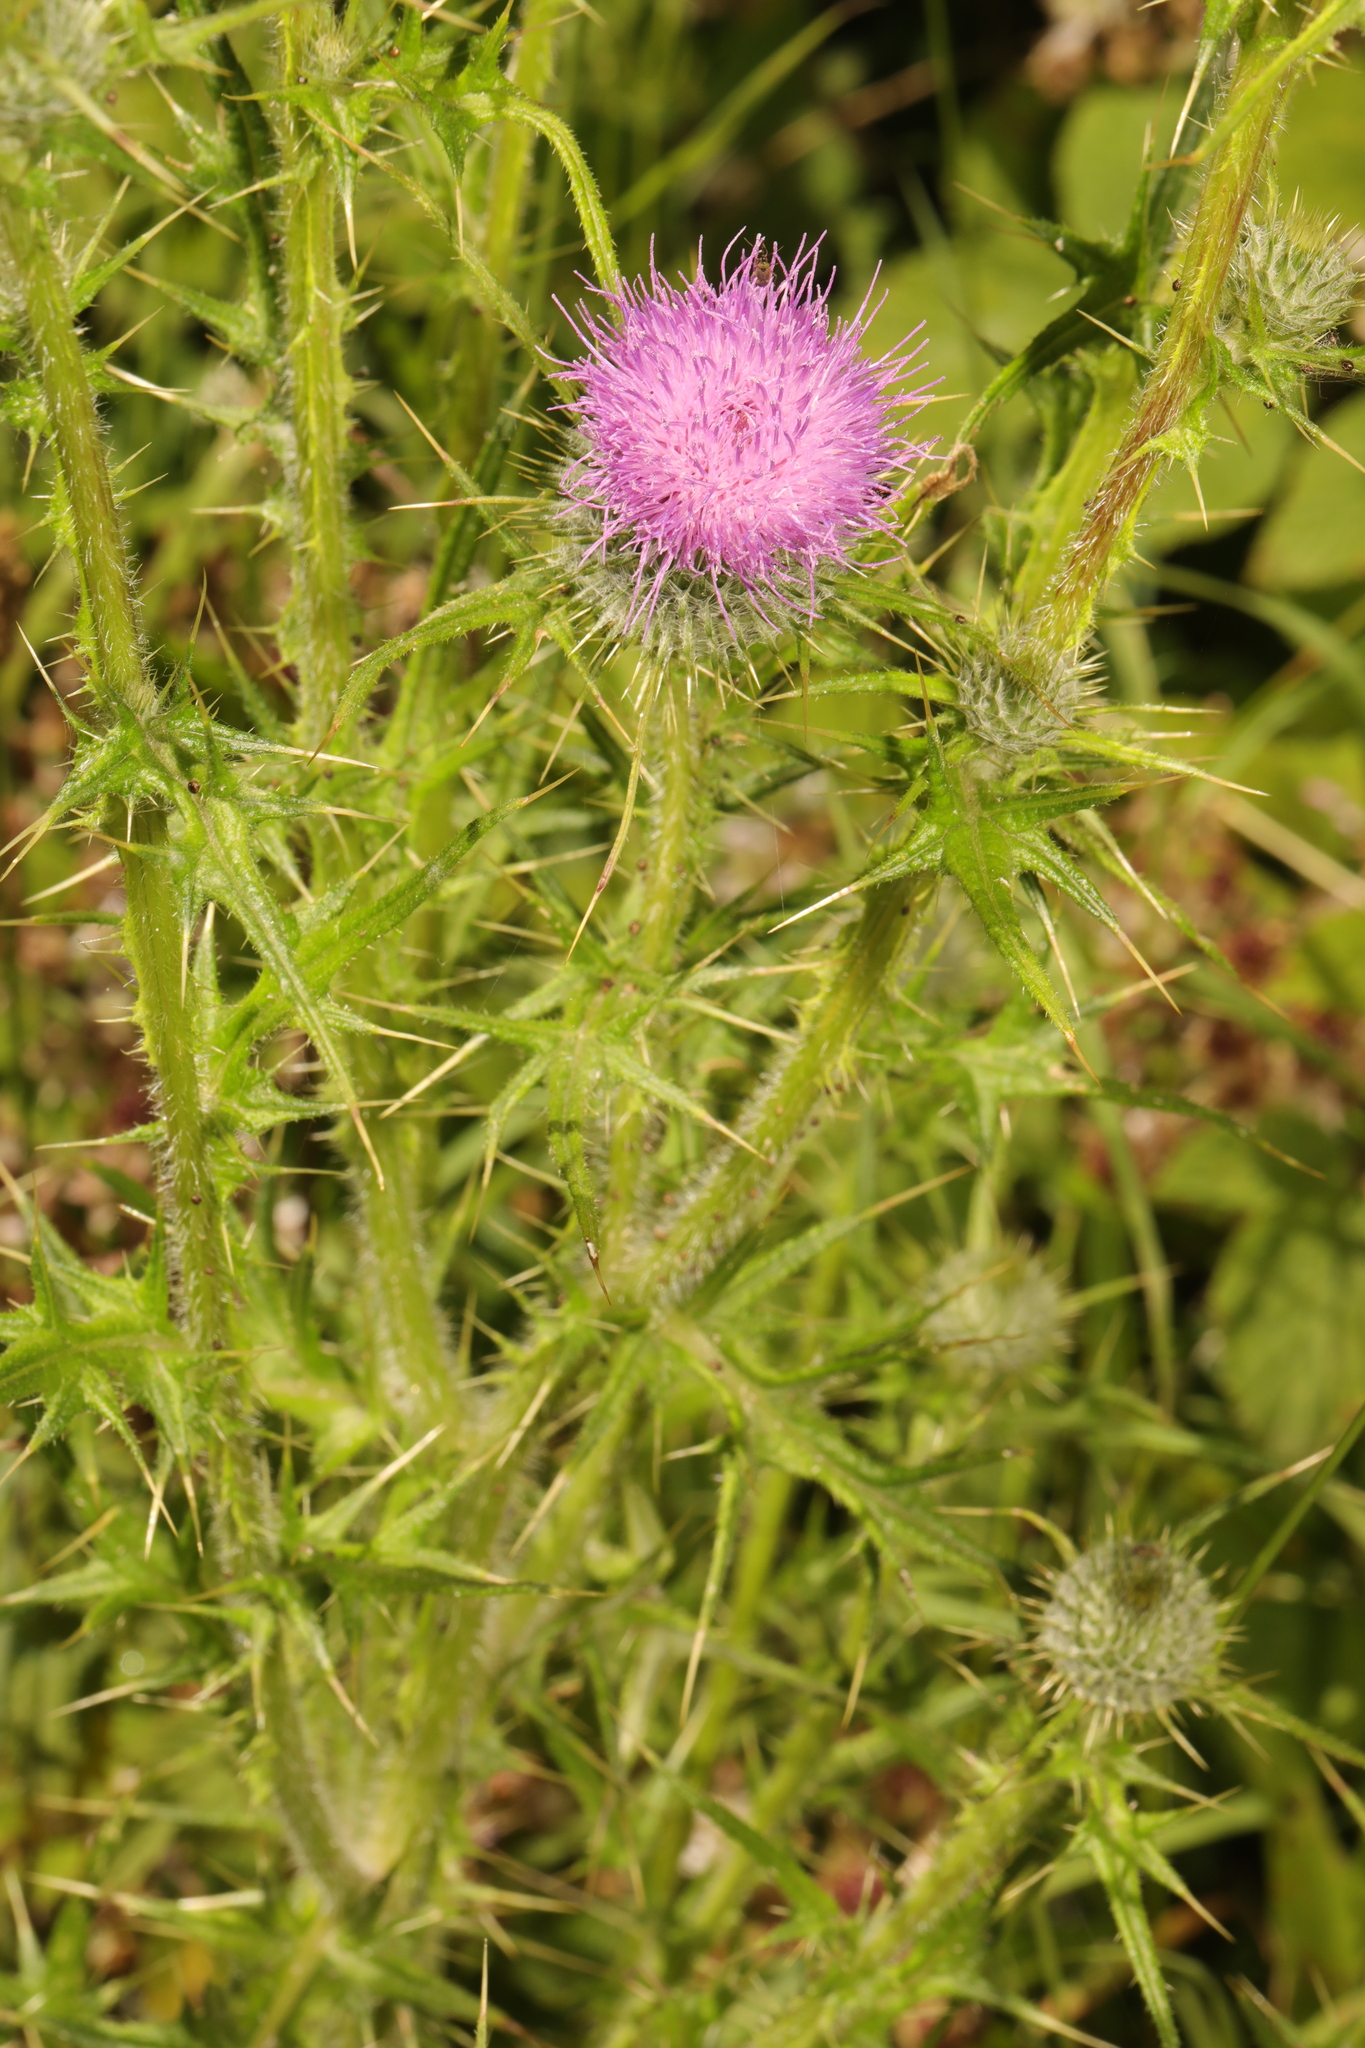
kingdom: Plantae
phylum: Tracheophyta
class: Magnoliopsida
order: Asterales
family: Asteraceae
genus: Cirsium
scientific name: Cirsium vulgare
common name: Bull thistle
